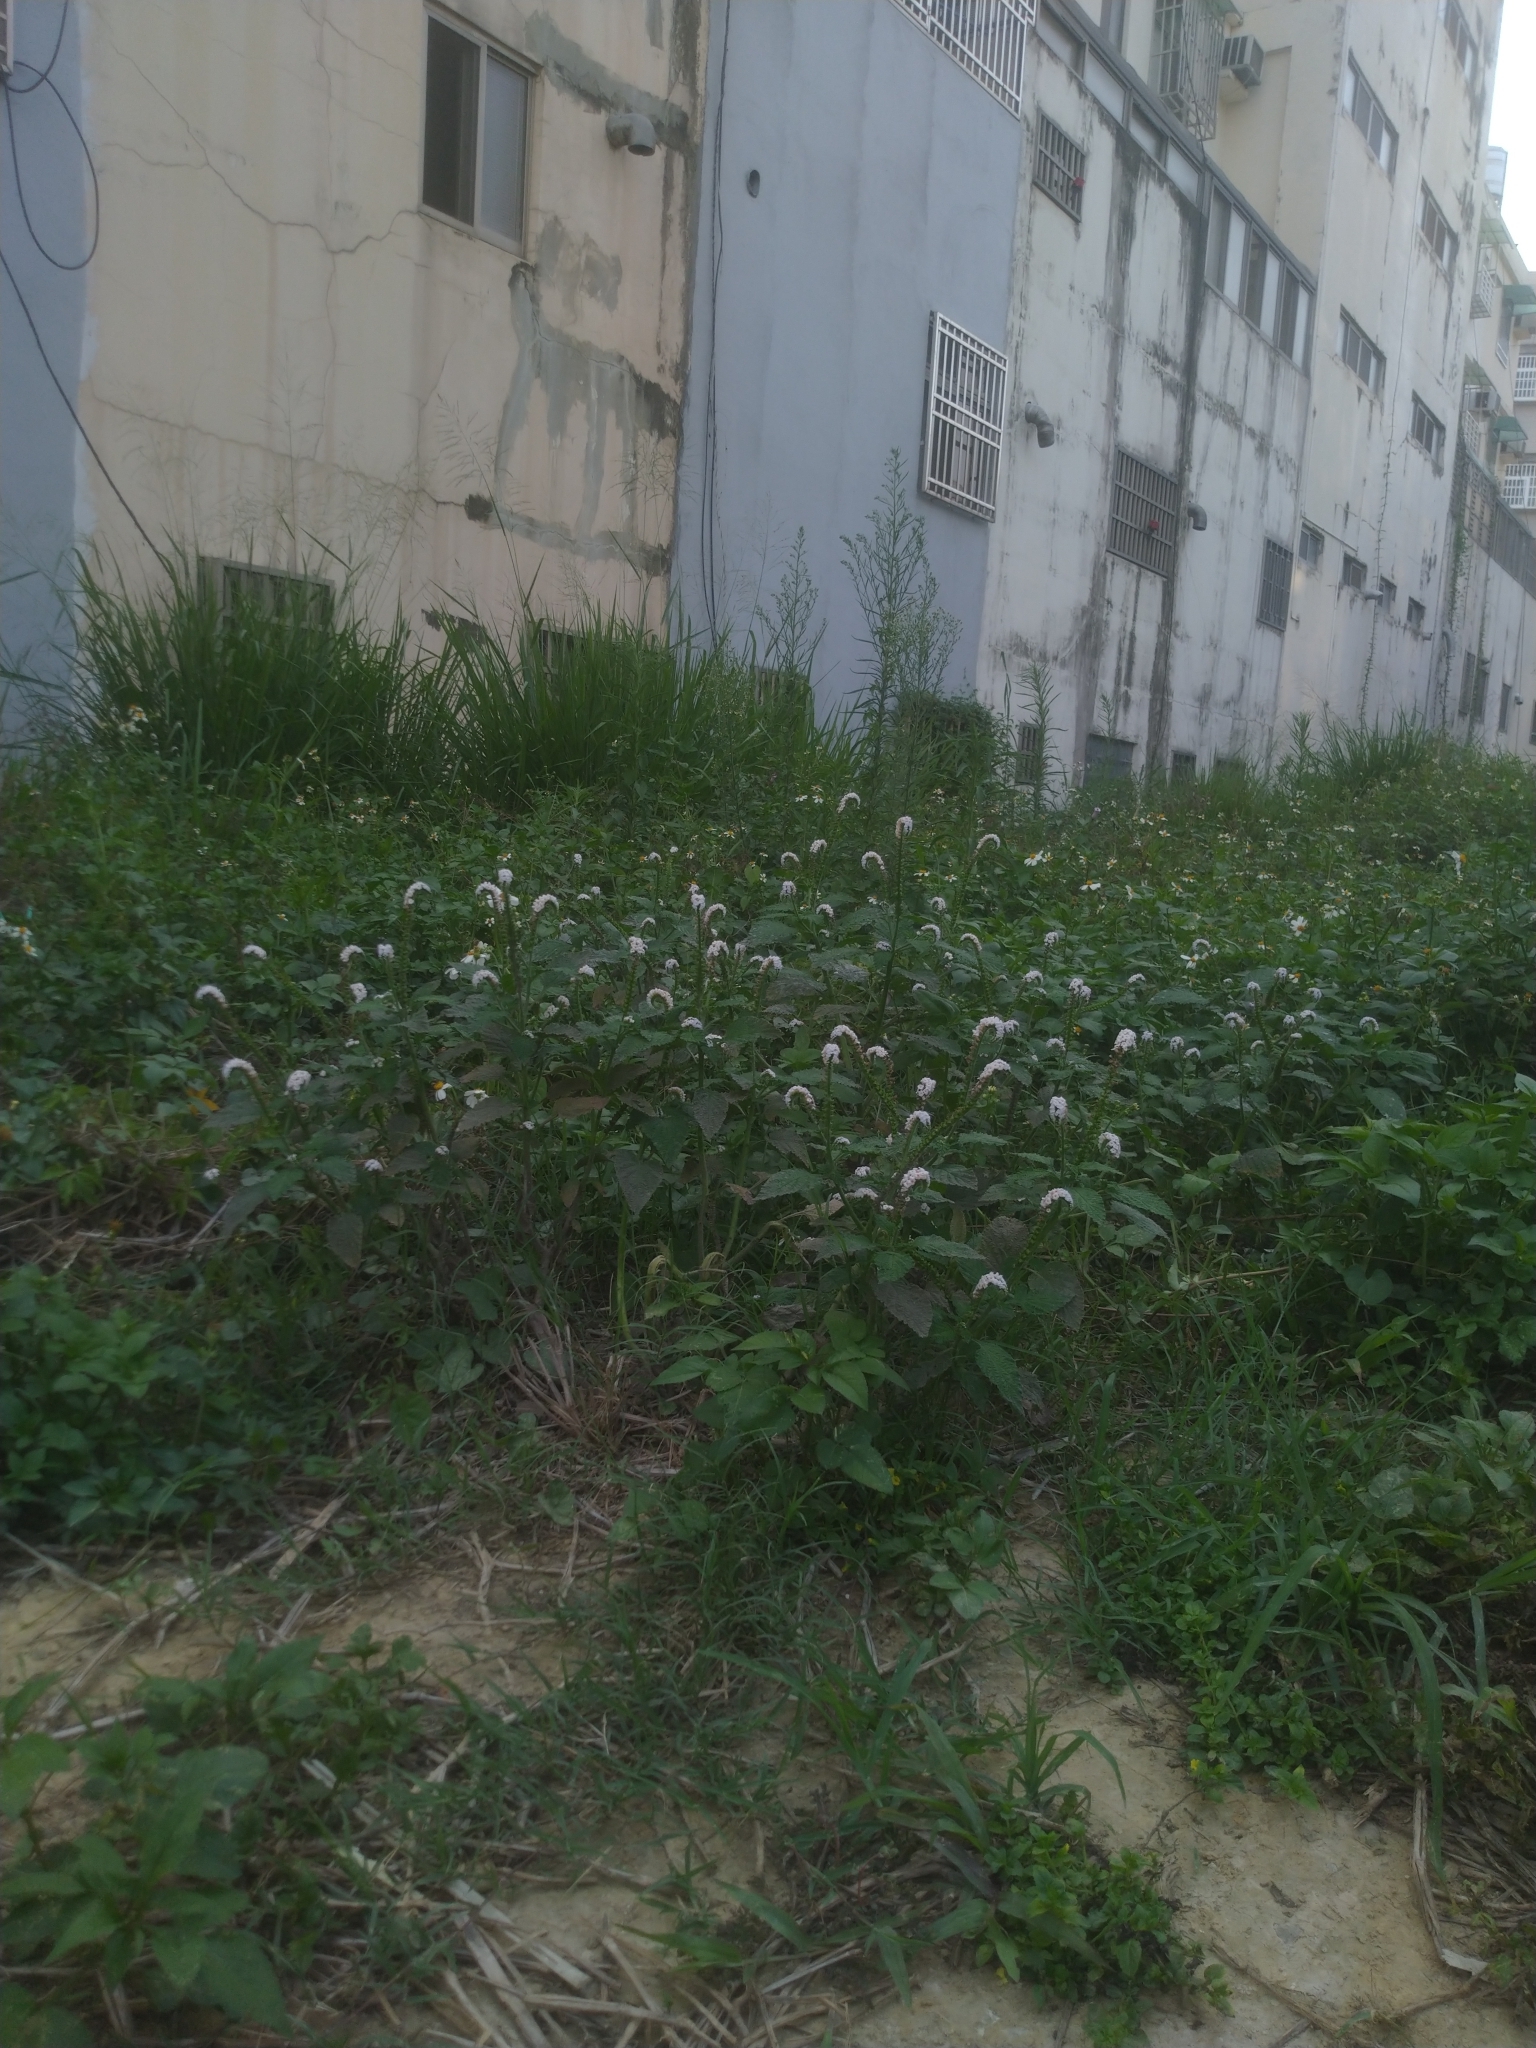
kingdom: Plantae
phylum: Tracheophyta
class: Magnoliopsida
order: Boraginales
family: Heliotropiaceae
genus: Heliotropium
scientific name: Heliotropium indicum
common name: Indian heliotrope
